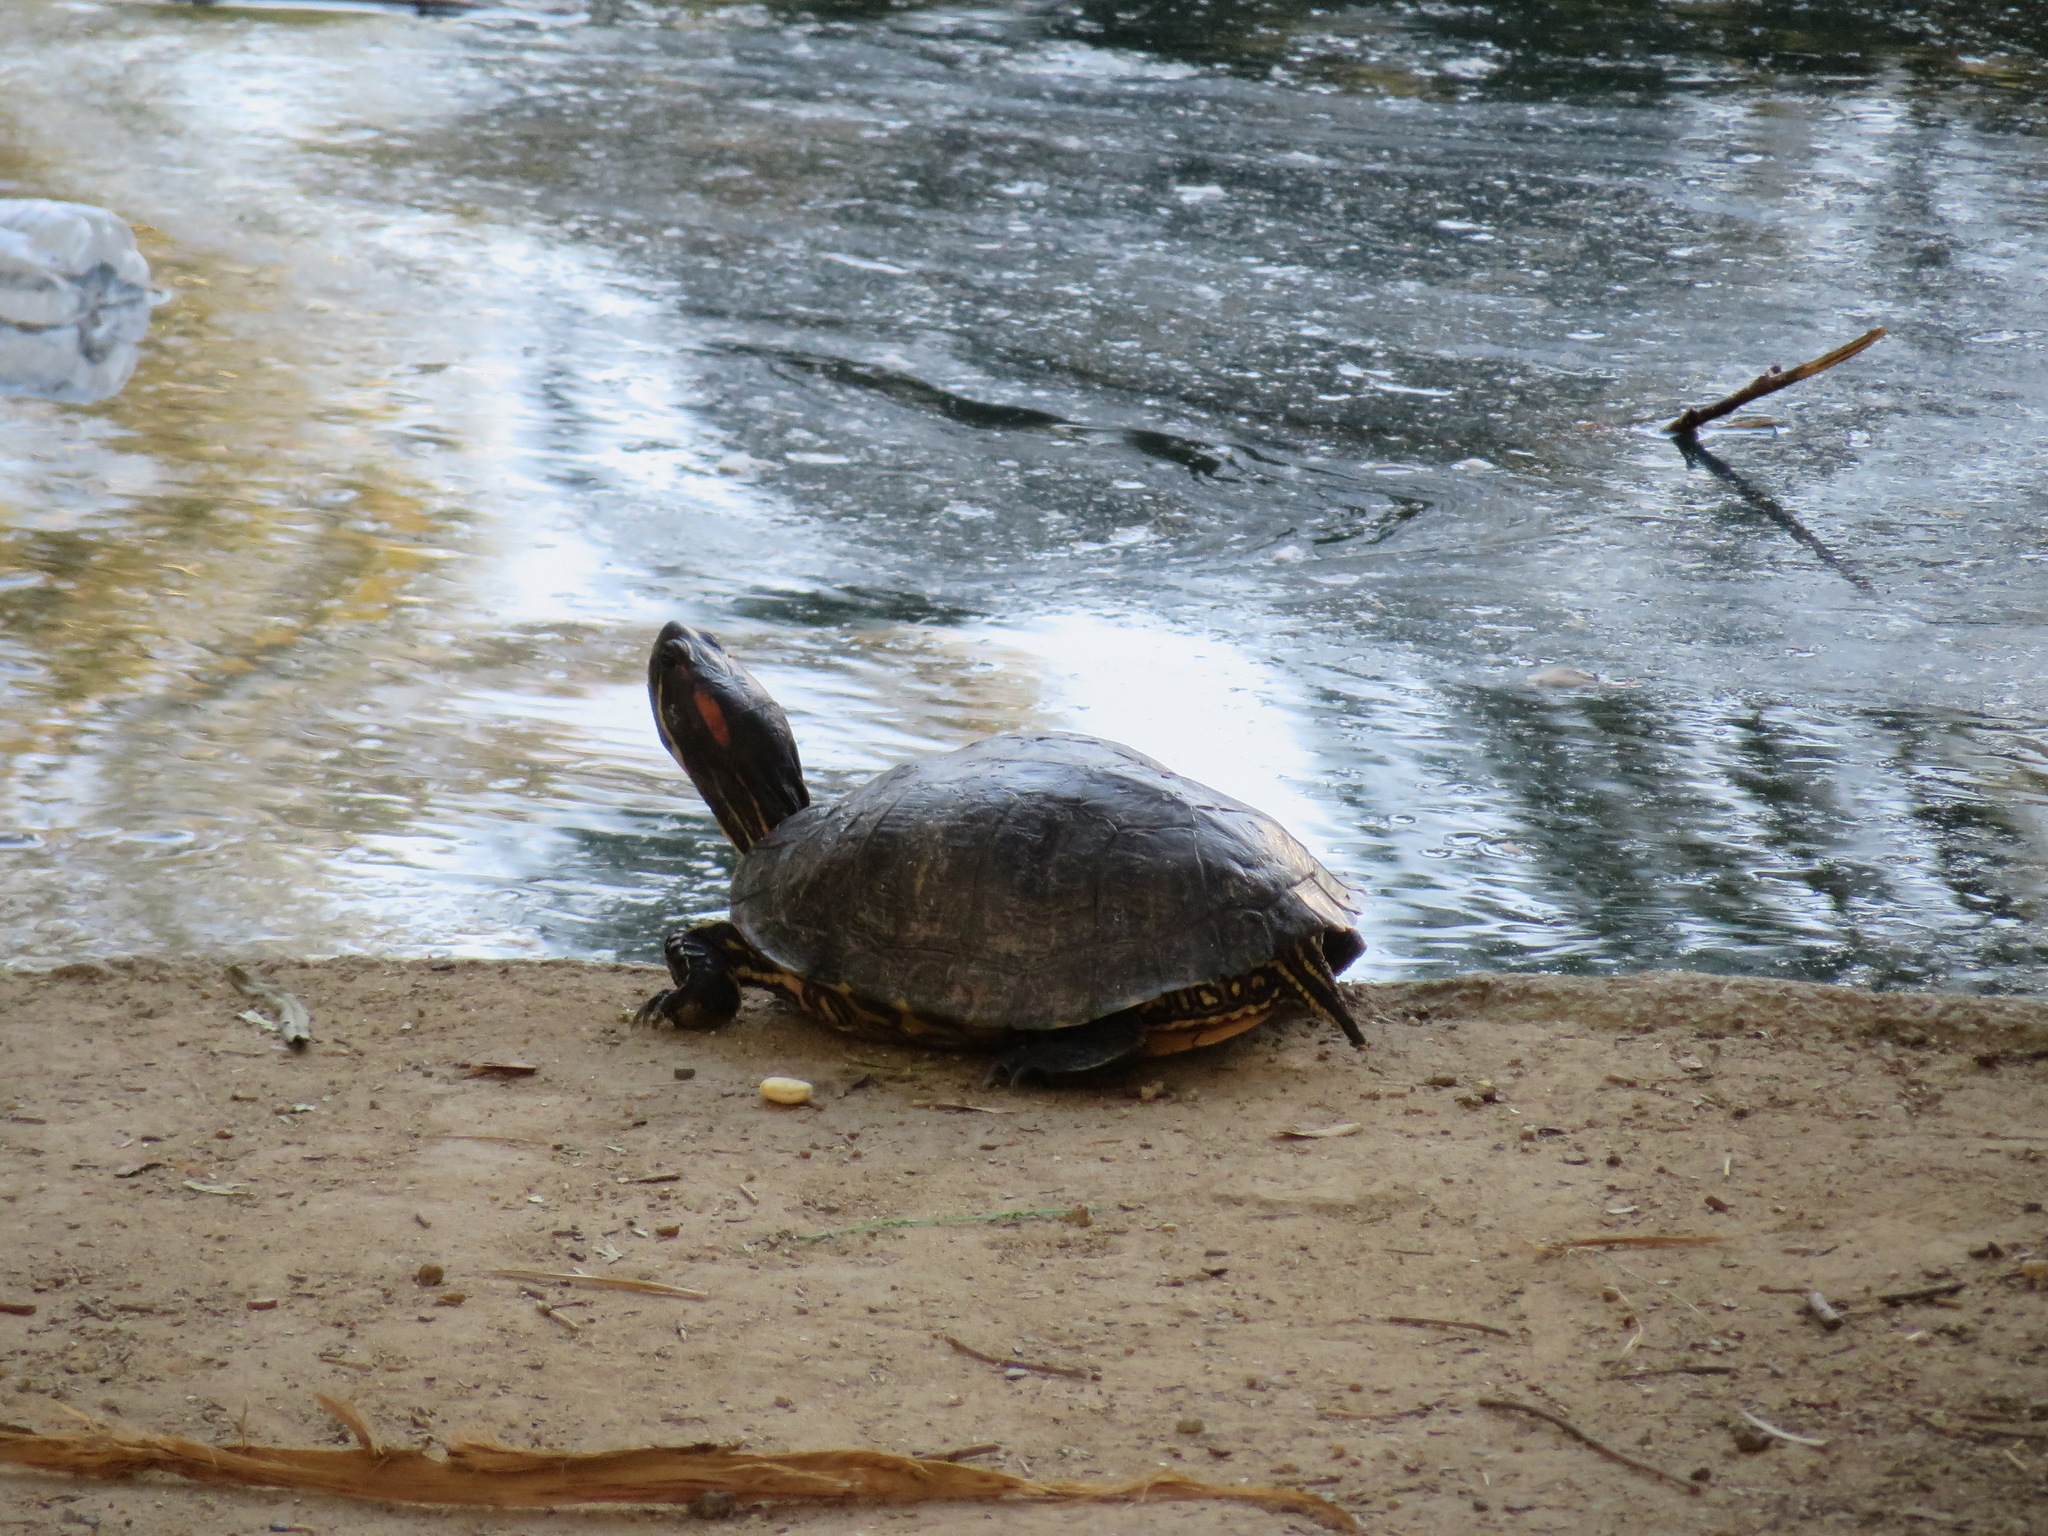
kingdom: Animalia
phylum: Chordata
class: Testudines
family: Emydidae
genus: Trachemys
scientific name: Trachemys scripta
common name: Slider
